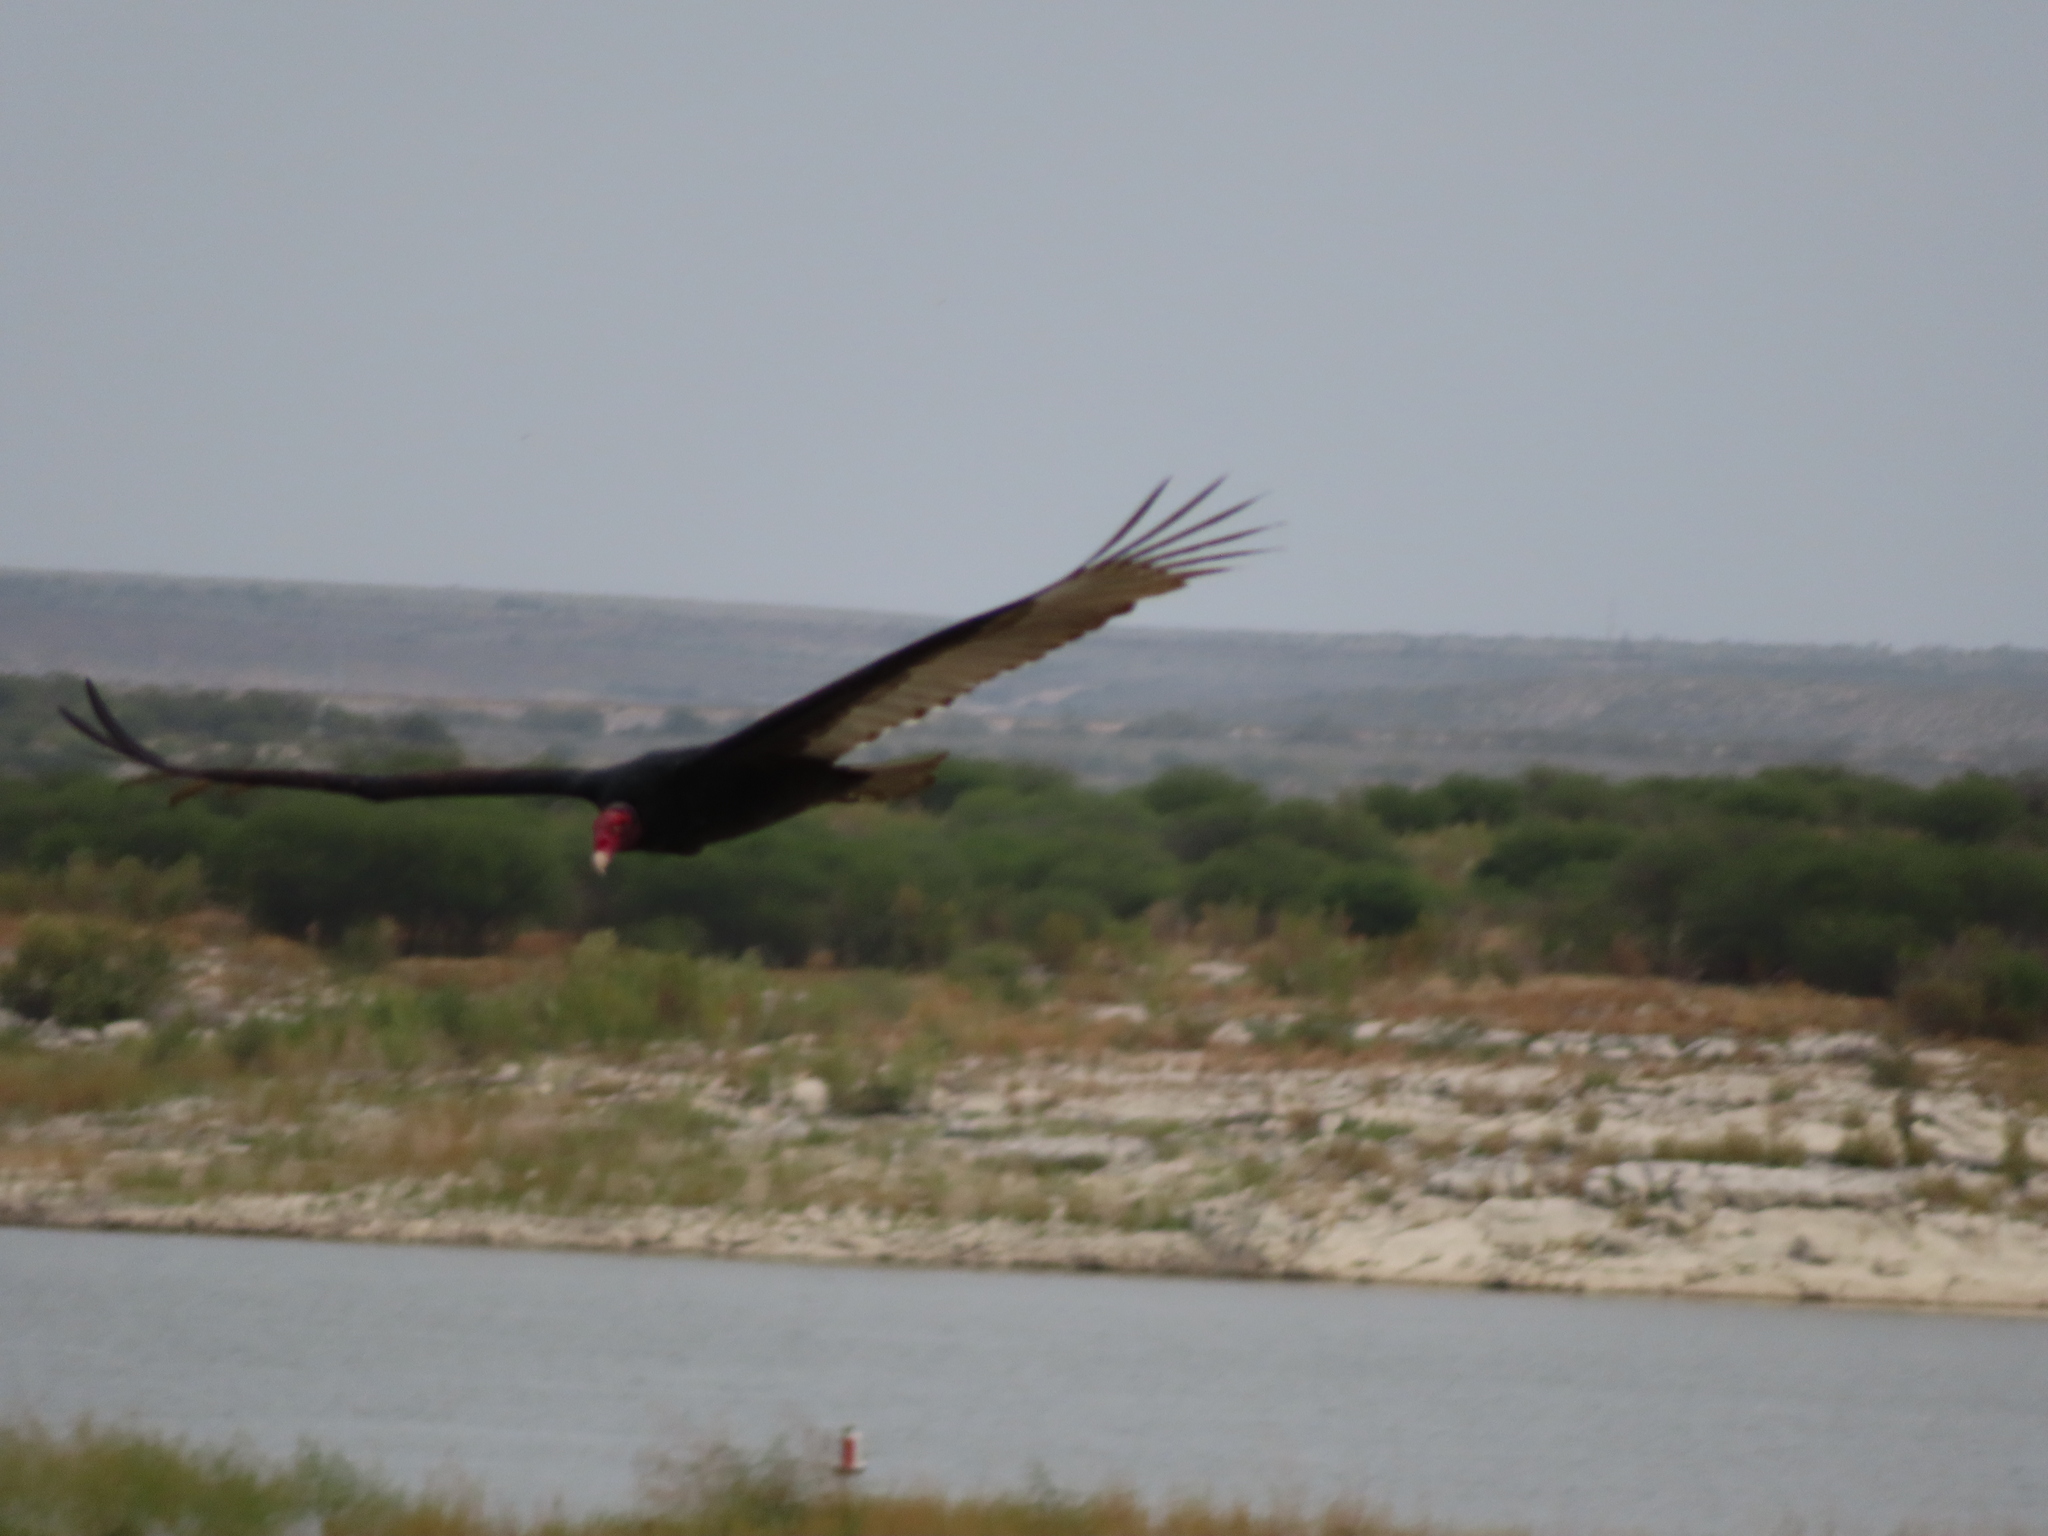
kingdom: Animalia
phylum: Chordata
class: Aves
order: Accipitriformes
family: Cathartidae
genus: Cathartes
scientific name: Cathartes aura
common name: Turkey vulture
